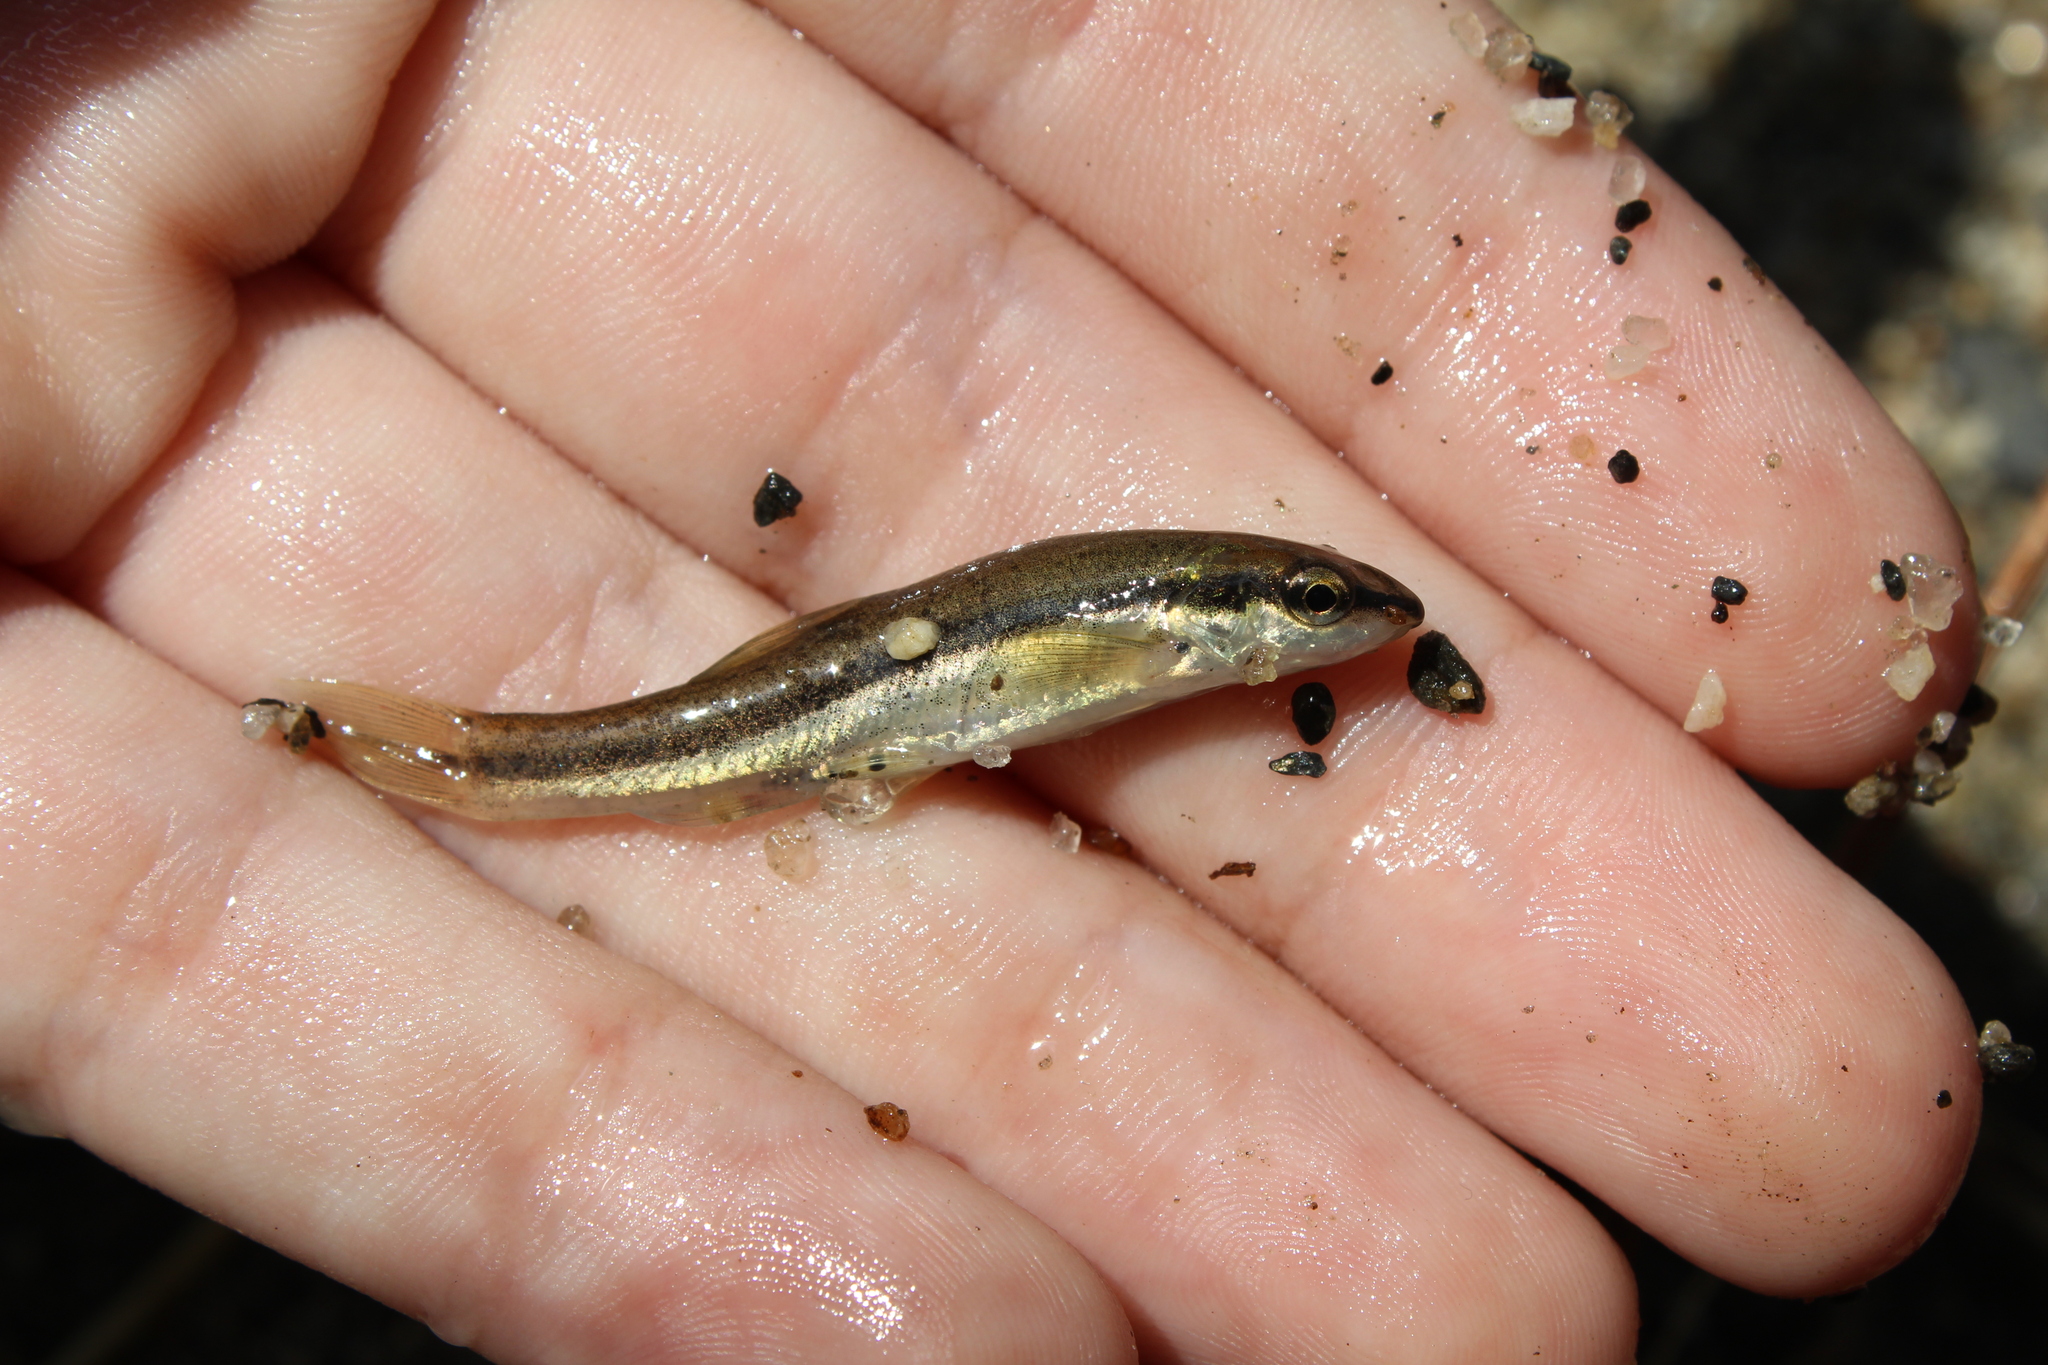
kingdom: Animalia
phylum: Chordata
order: Cypriniformes
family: Cyprinidae
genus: Rhinichthys
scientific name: Rhinichthys atratulus
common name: Eastern blacknose dace
